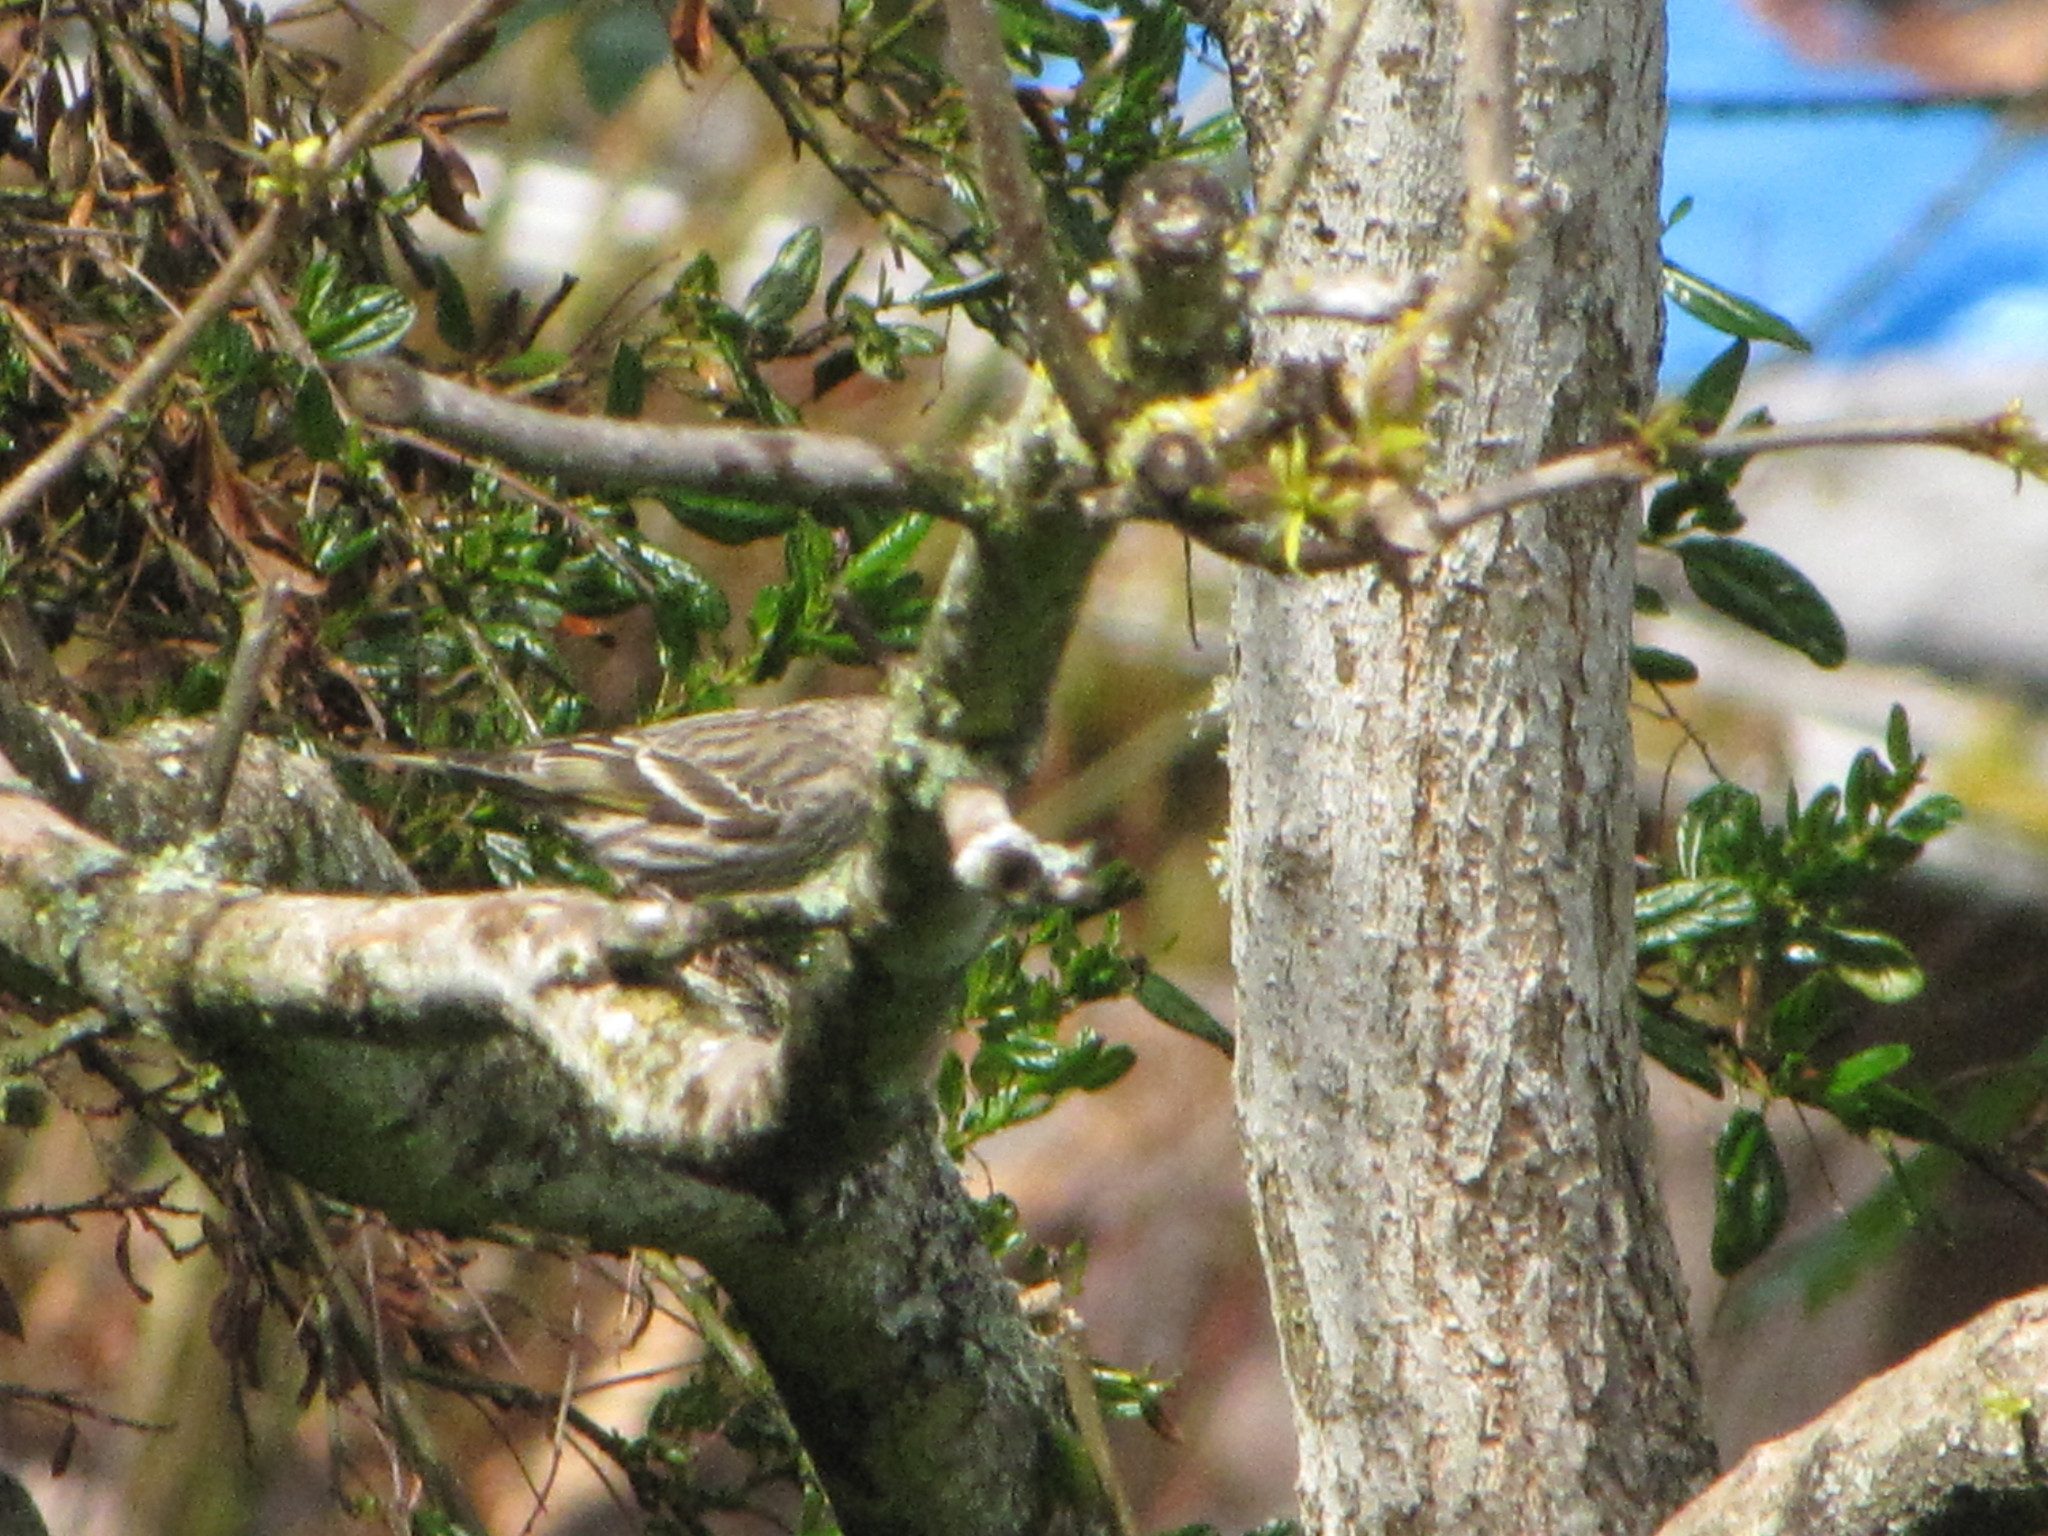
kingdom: Animalia
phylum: Chordata
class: Aves
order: Passeriformes
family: Fringillidae
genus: Spinus
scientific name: Spinus pinus
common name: Pine siskin
